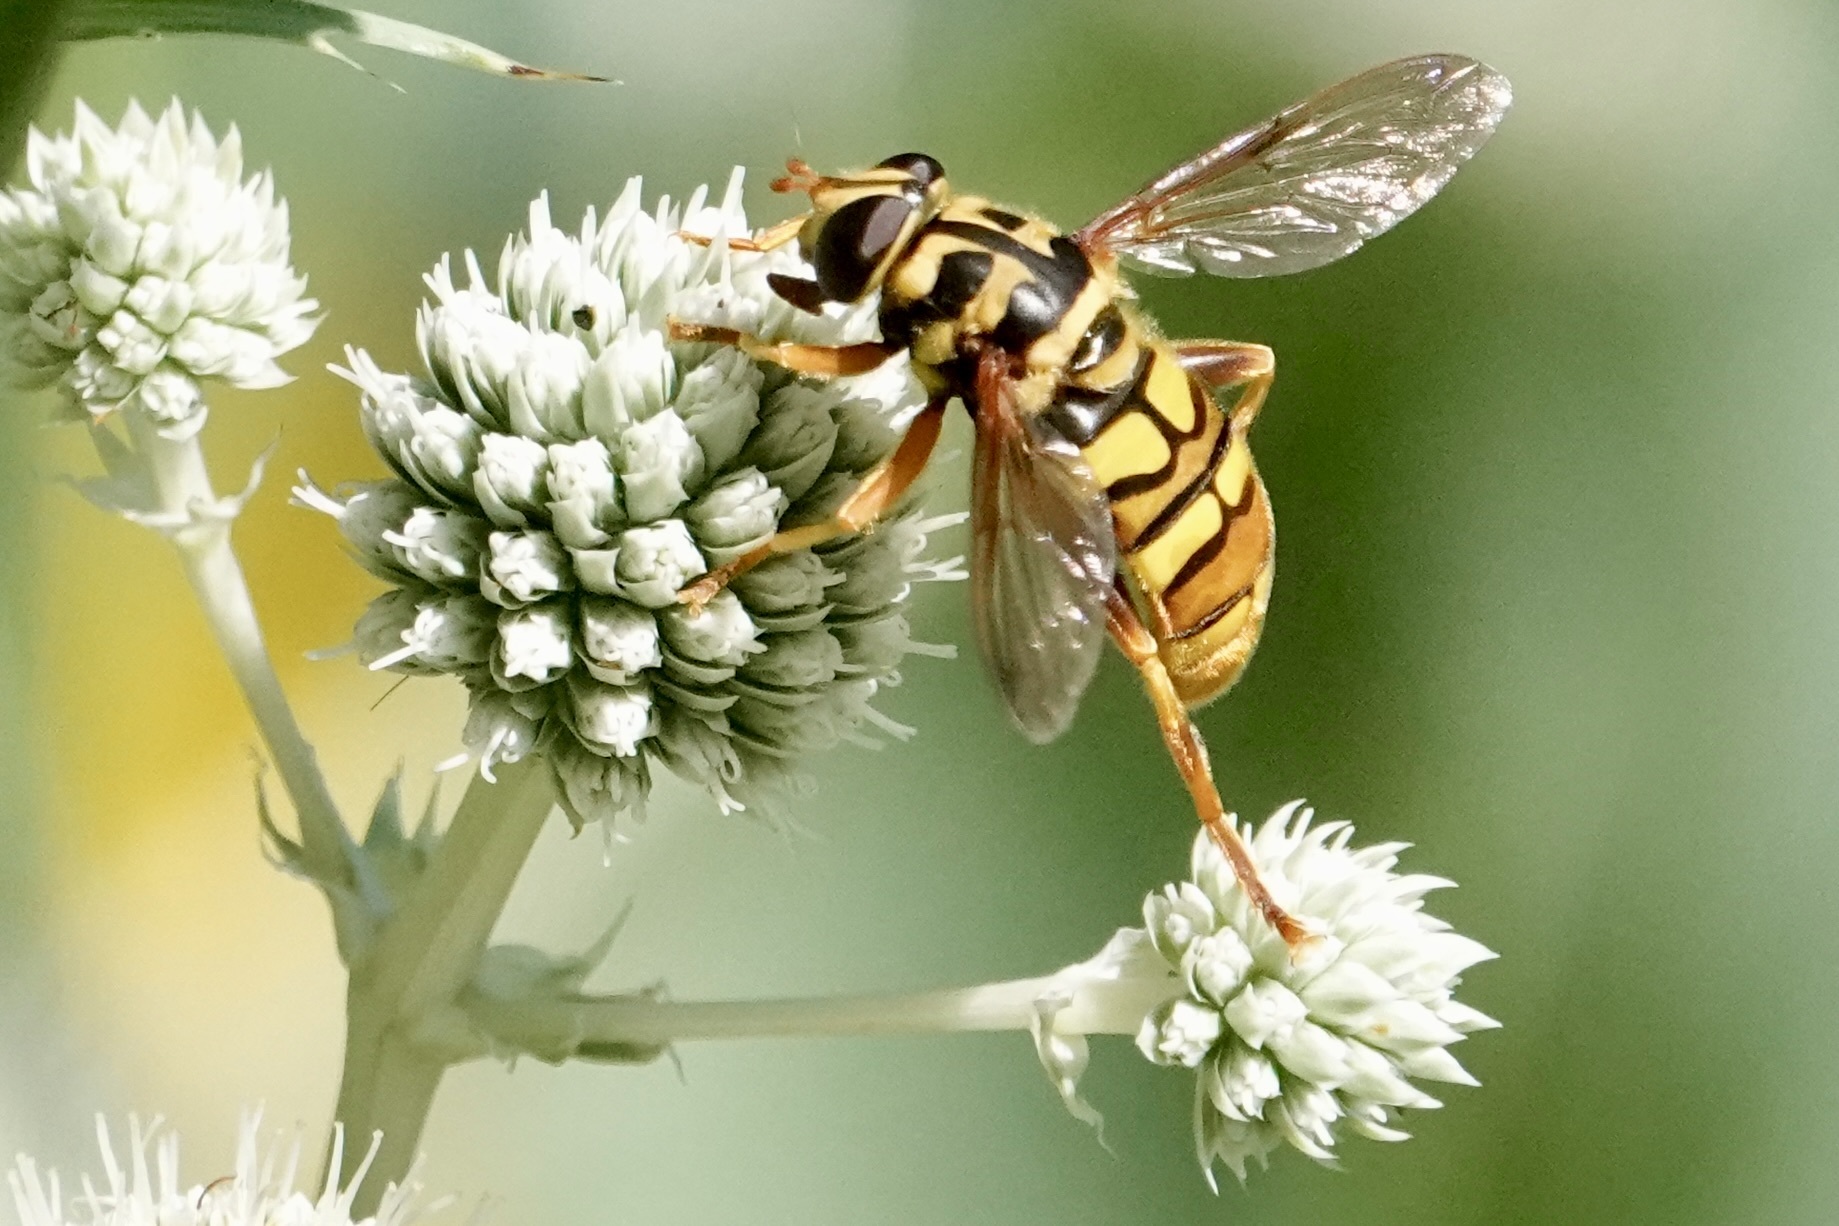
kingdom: Animalia
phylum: Arthropoda
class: Insecta
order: Diptera
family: Syrphidae
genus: Milesia
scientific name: Milesia virginiensis
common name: Virginia giant
